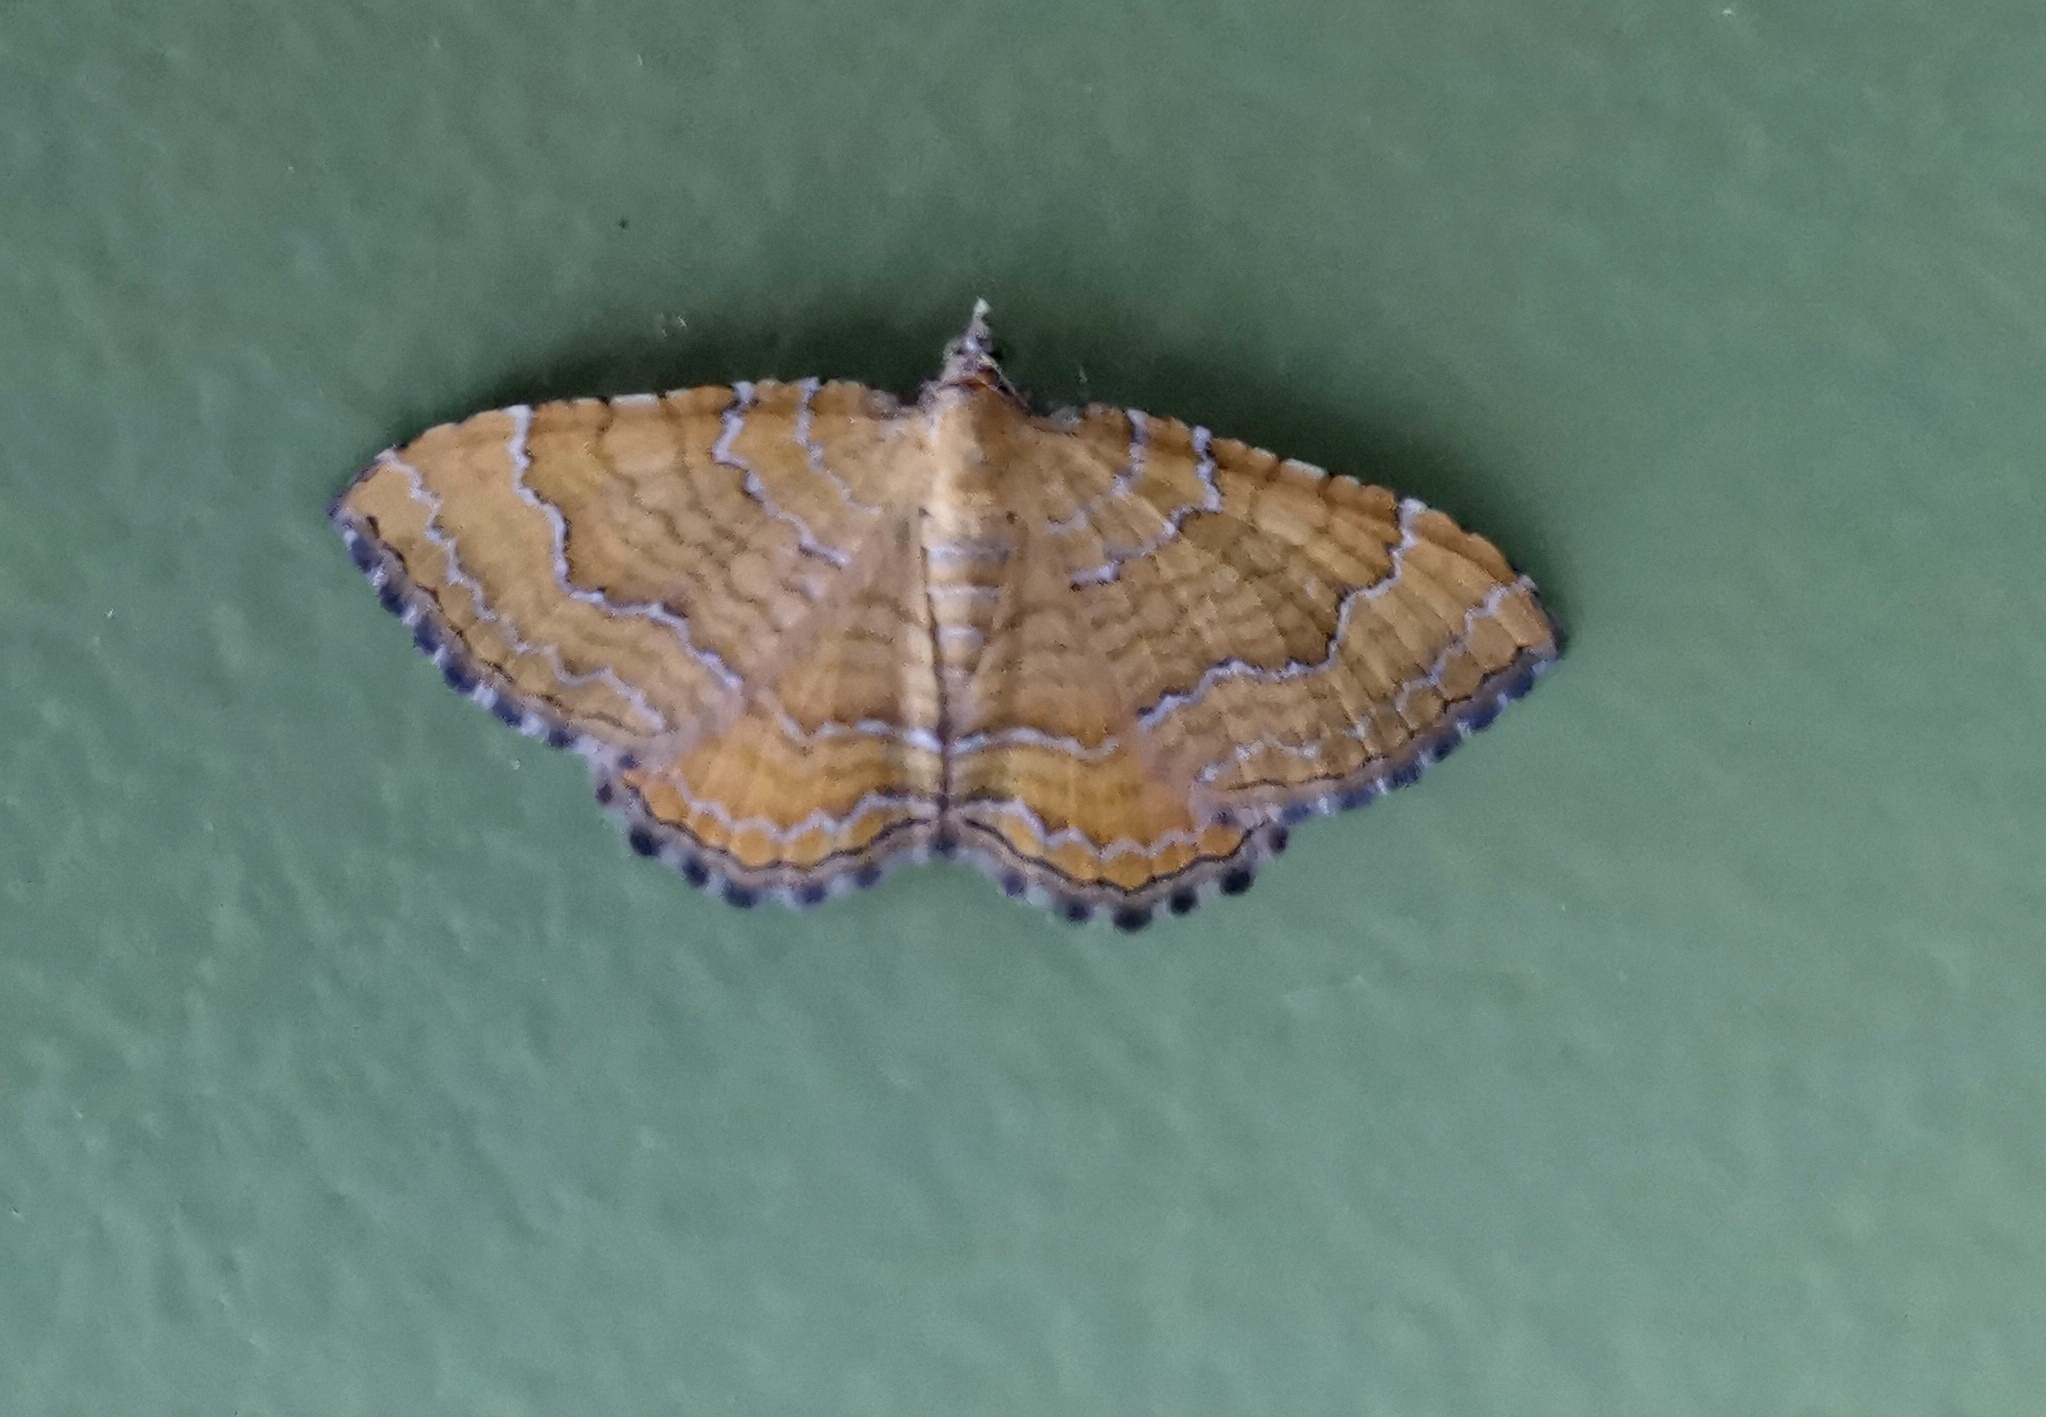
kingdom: Animalia
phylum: Arthropoda
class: Insecta
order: Lepidoptera
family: Geometridae
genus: Camptogramma
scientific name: Camptogramma bilineata
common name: Yellow shell
